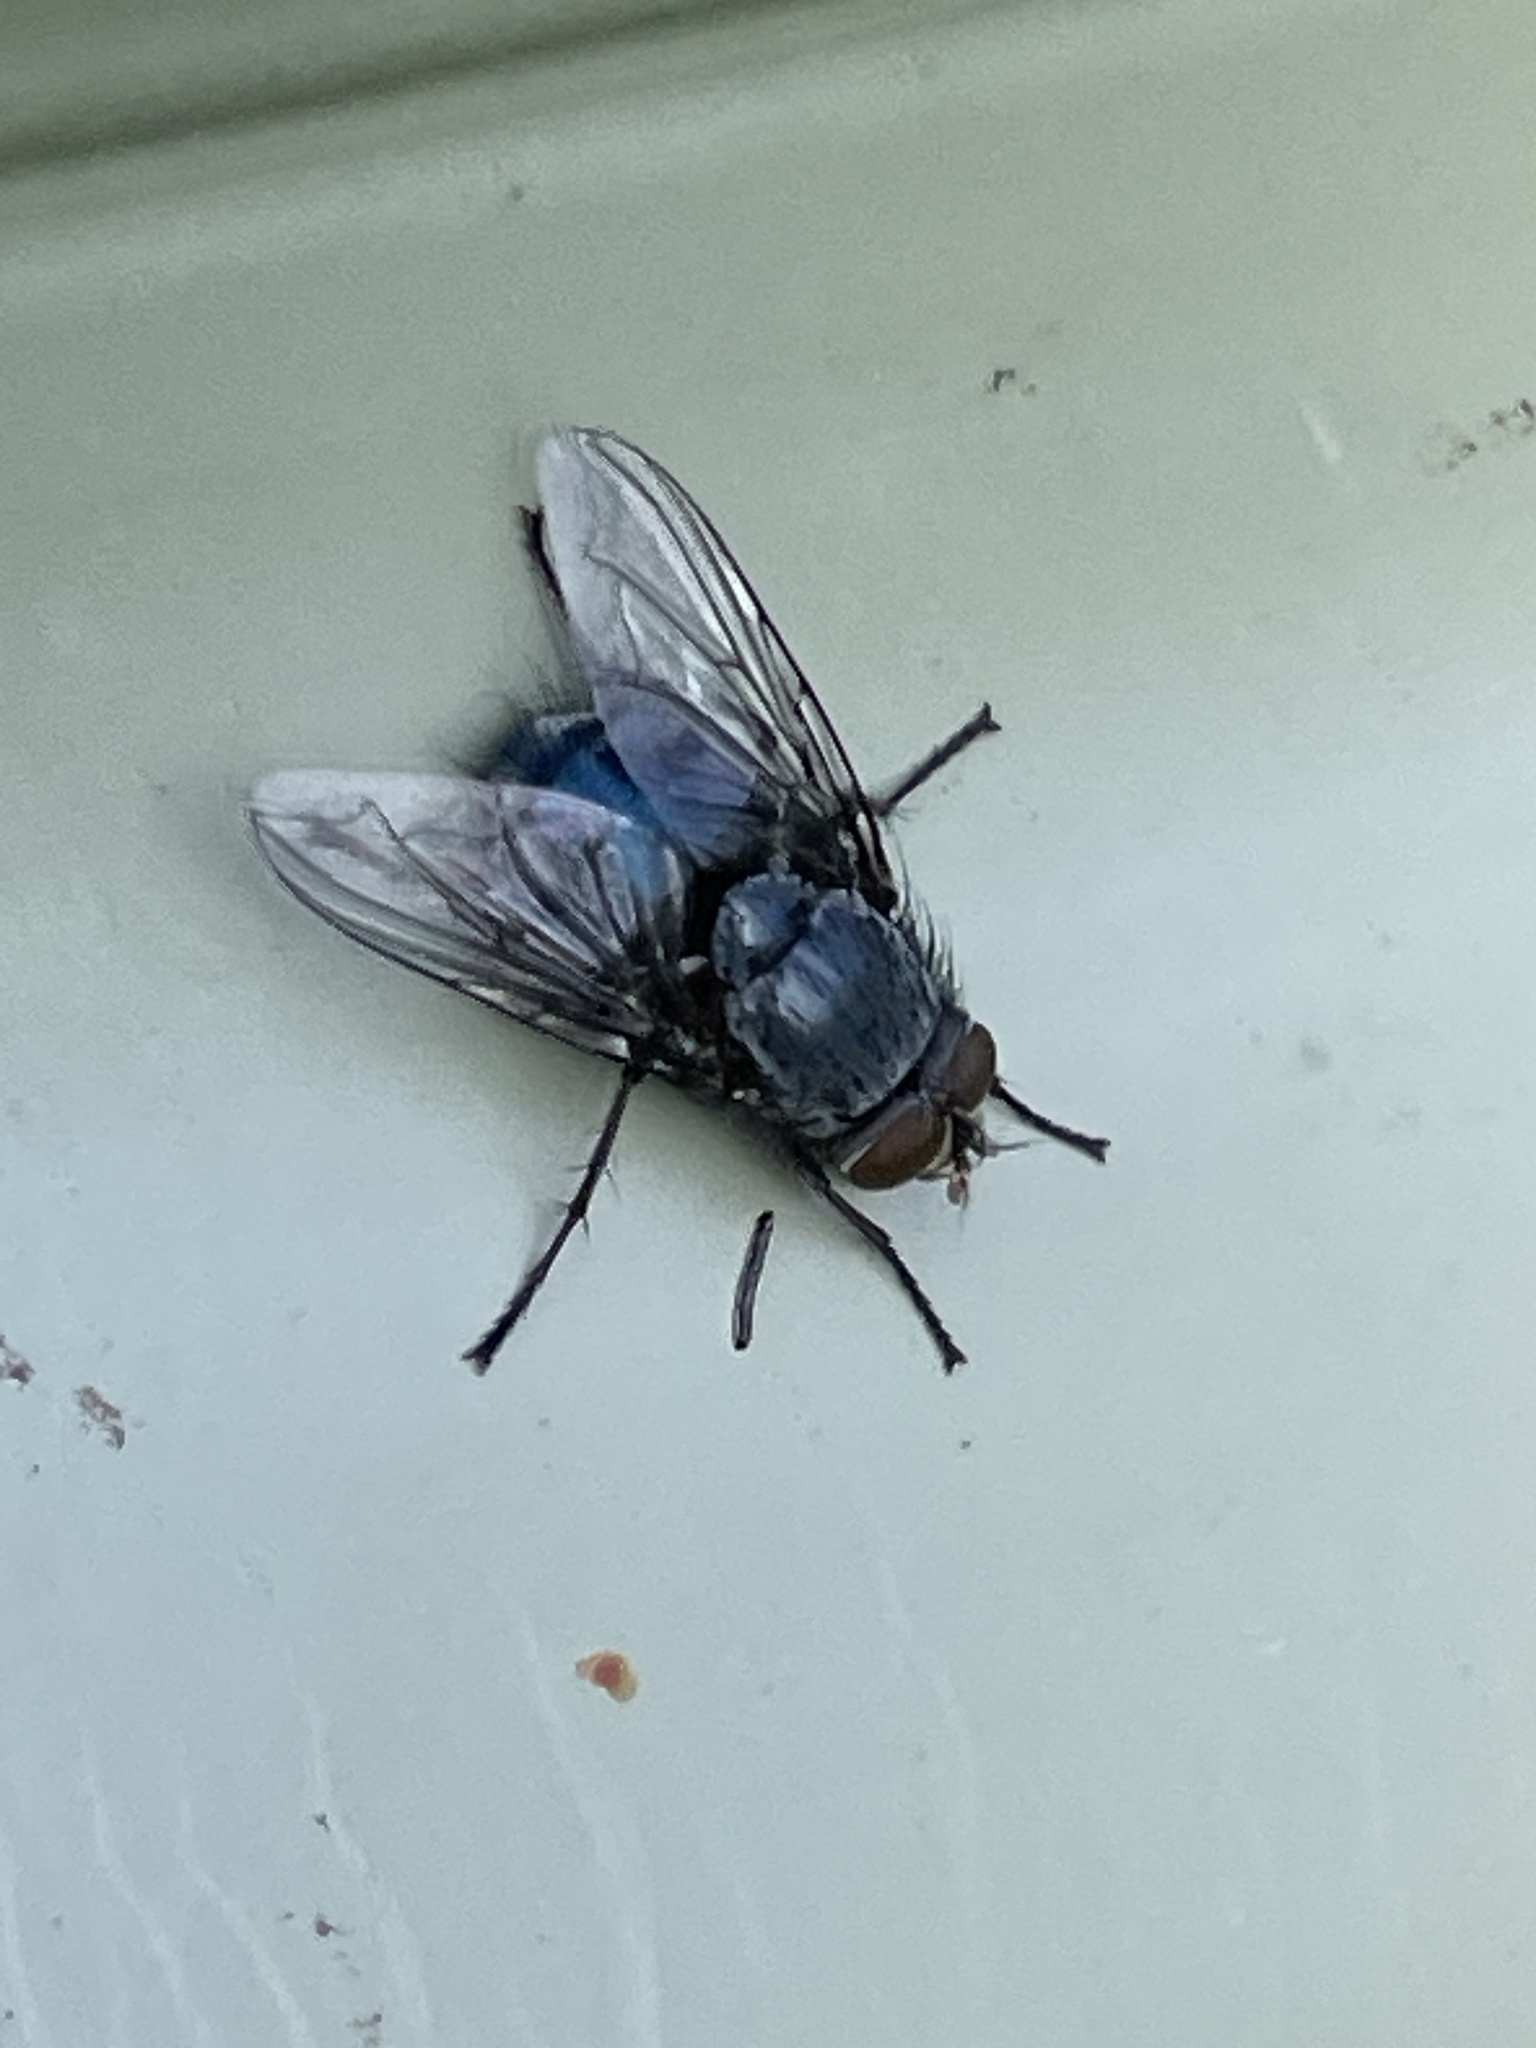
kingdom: Animalia
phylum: Arthropoda
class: Insecta
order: Diptera
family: Calliphoridae
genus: Calliphora
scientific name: Calliphora vicina
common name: Common blow flie
